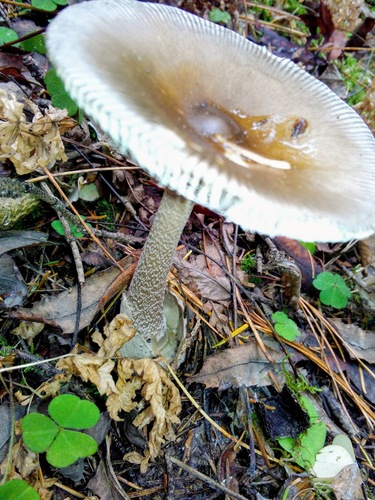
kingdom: Fungi
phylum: Basidiomycota
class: Agaricomycetes
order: Agaricales
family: Amanitaceae
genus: Amanita
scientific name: Amanita
